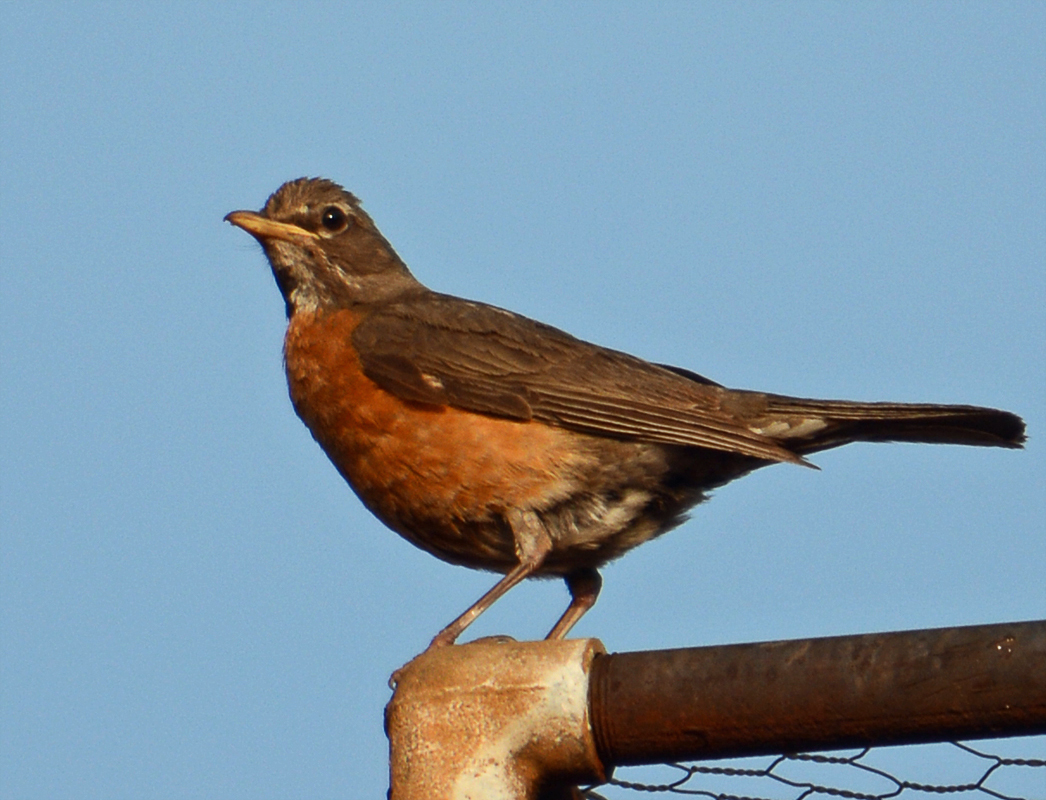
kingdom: Animalia
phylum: Chordata
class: Aves
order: Passeriformes
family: Turdidae
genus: Turdus
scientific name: Turdus migratorius
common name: American robin
